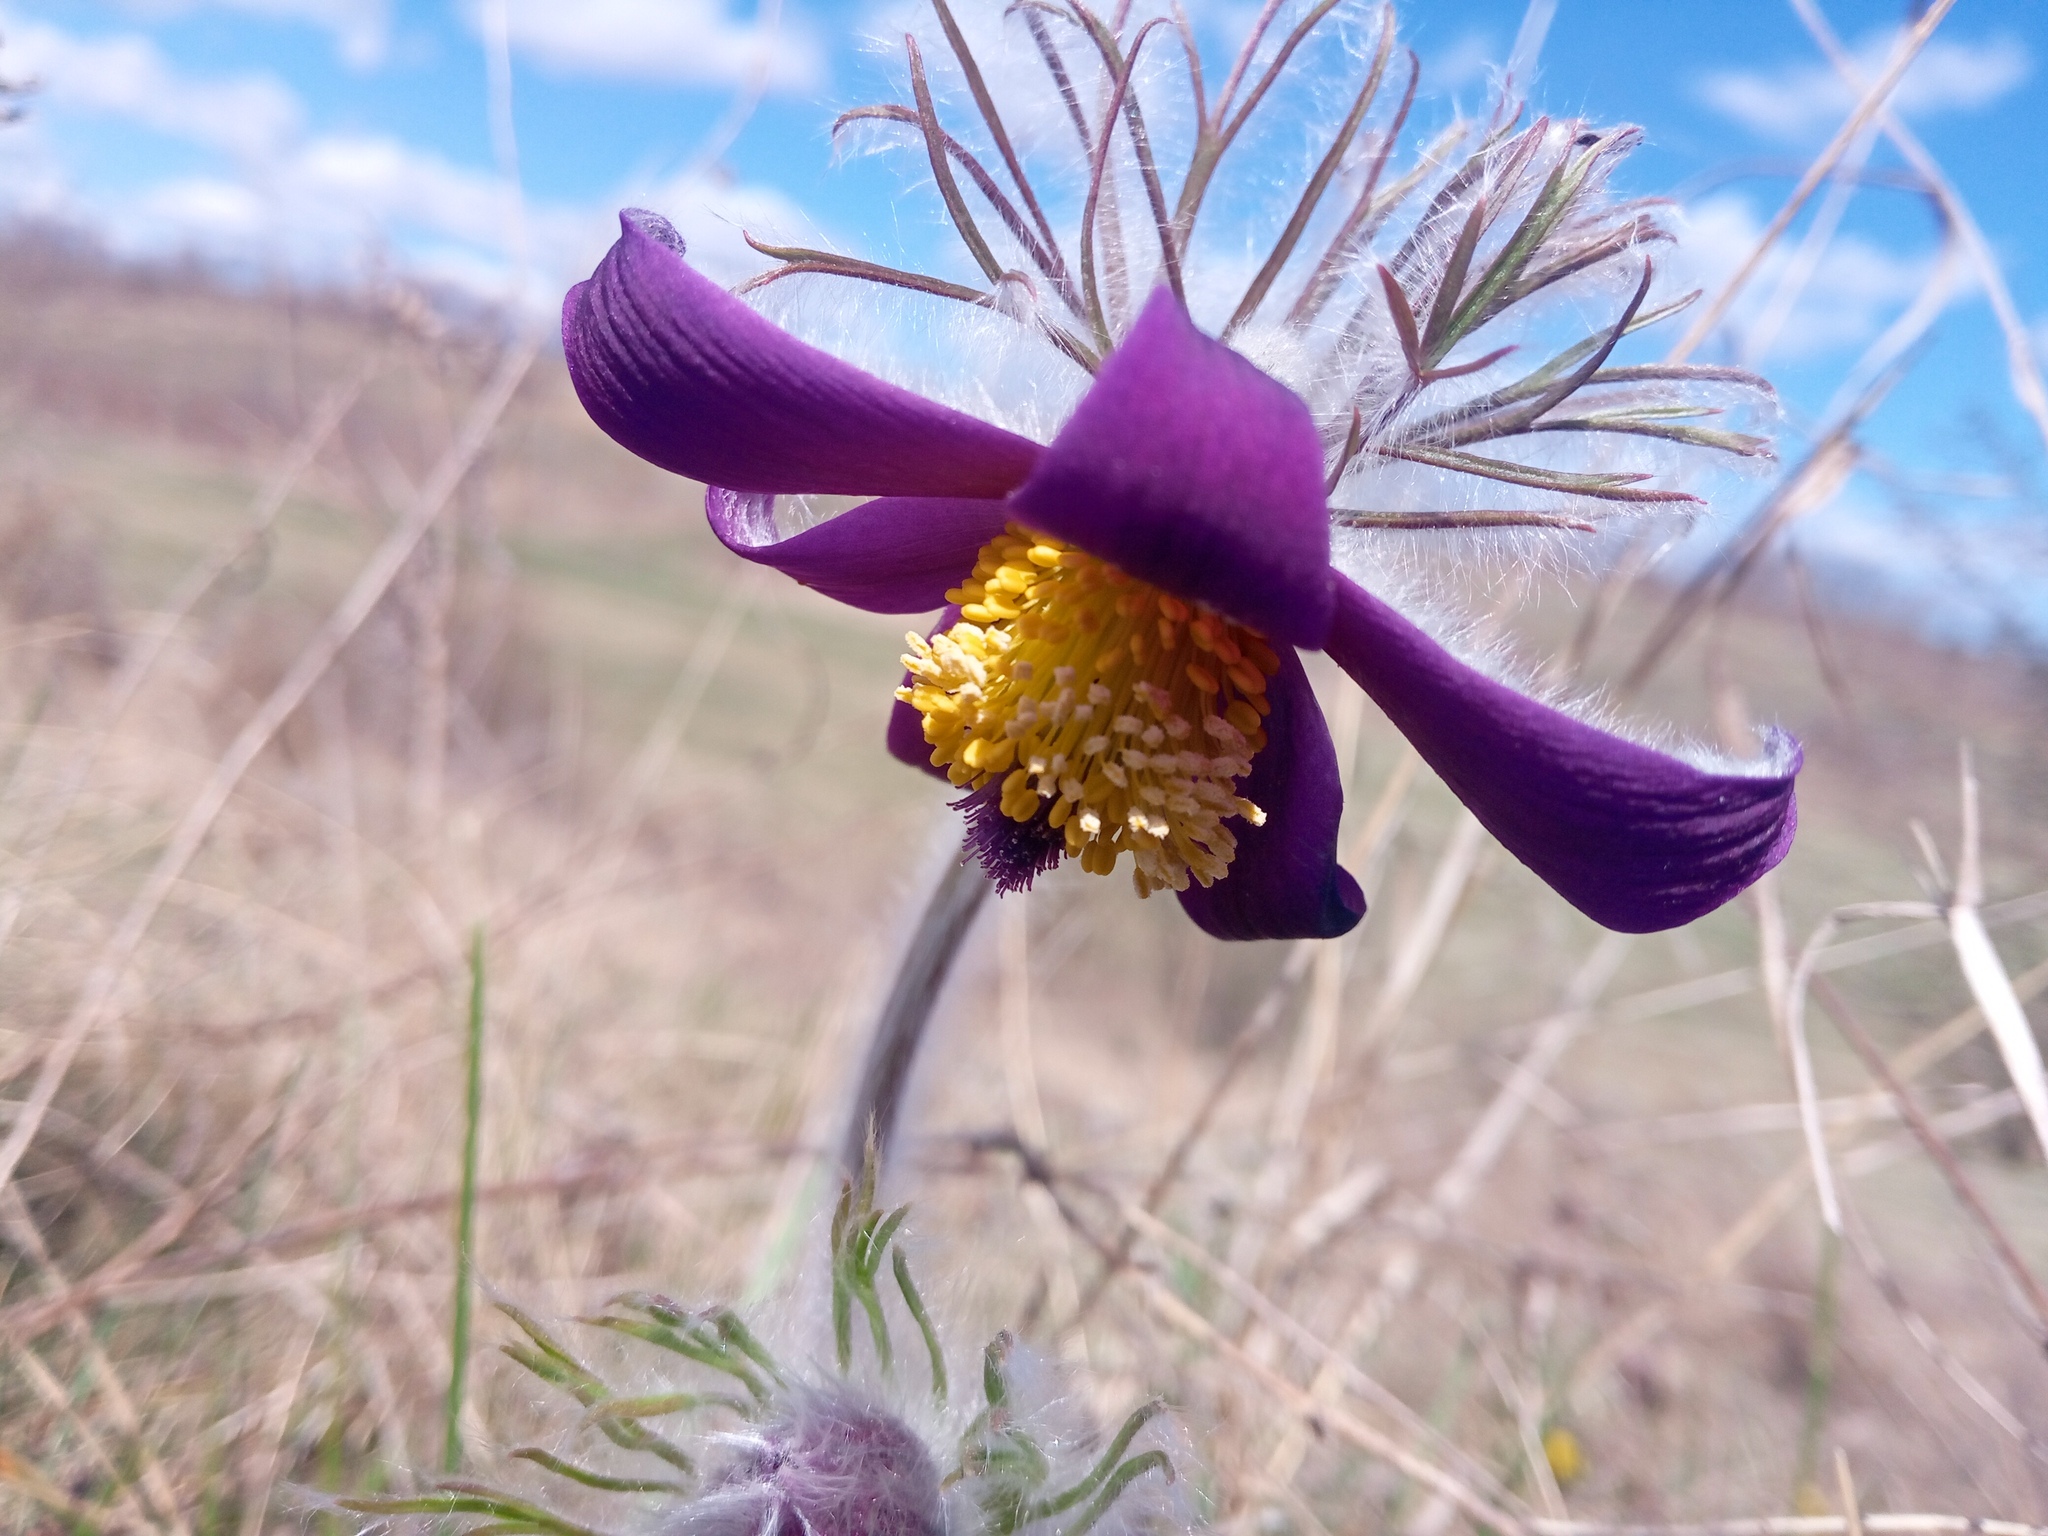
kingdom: Plantae
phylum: Tracheophyta
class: Magnoliopsida
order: Ranunculales
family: Ranunculaceae
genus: Pulsatilla
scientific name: Pulsatilla pratensis
